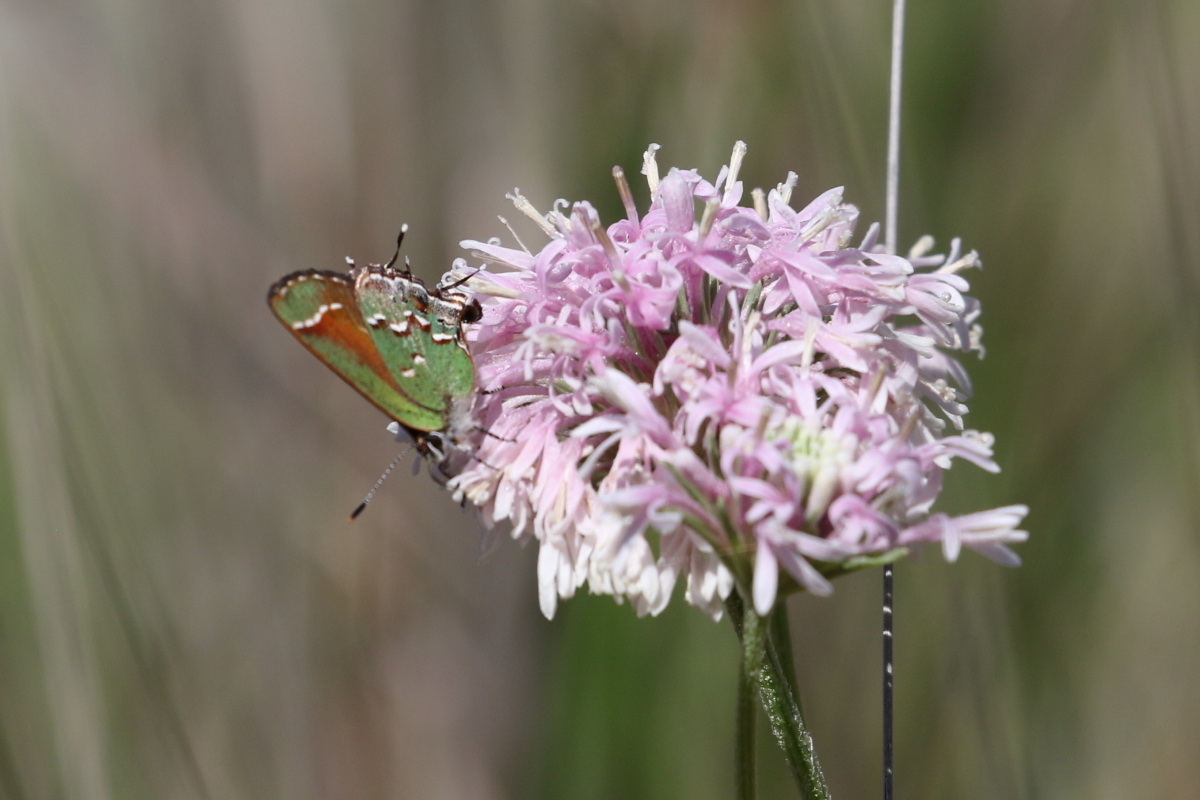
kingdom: Animalia
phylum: Arthropoda
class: Insecta
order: Lepidoptera
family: Lycaenidae
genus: Mitoura
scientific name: Mitoura gryneus
